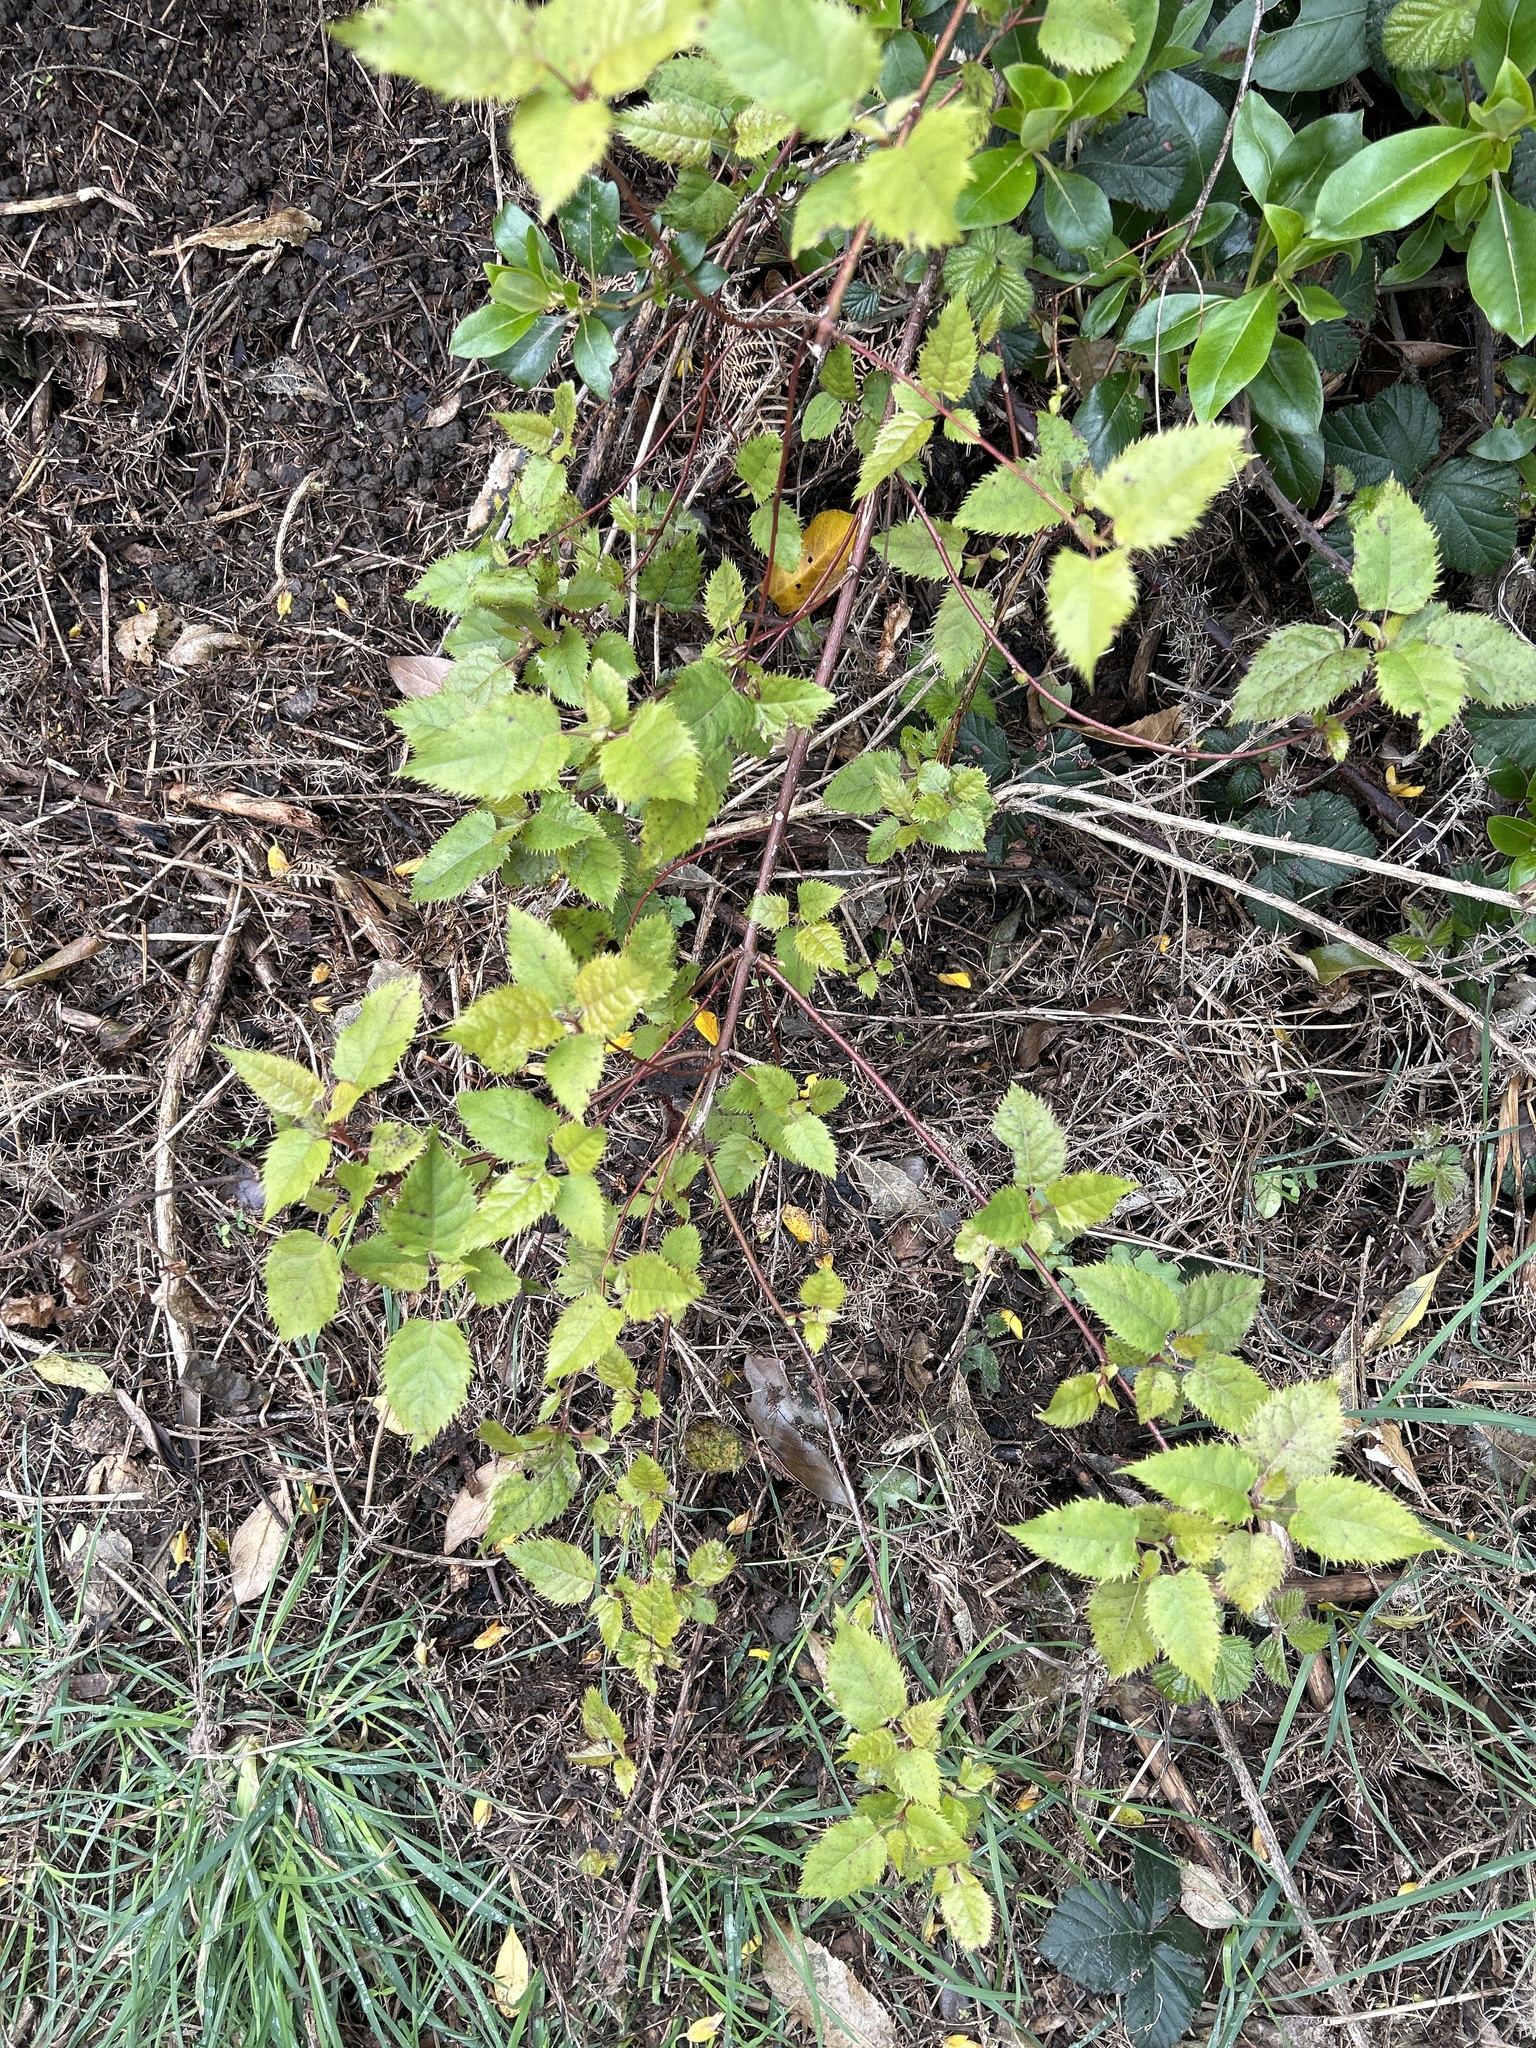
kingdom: Plantae
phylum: Tracheophyta
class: Magnoliopsida
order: Oxalidales
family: Elaeocarpaceae
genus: Aristotelia
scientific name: Aristotelia serrata
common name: New zealand wineberry
